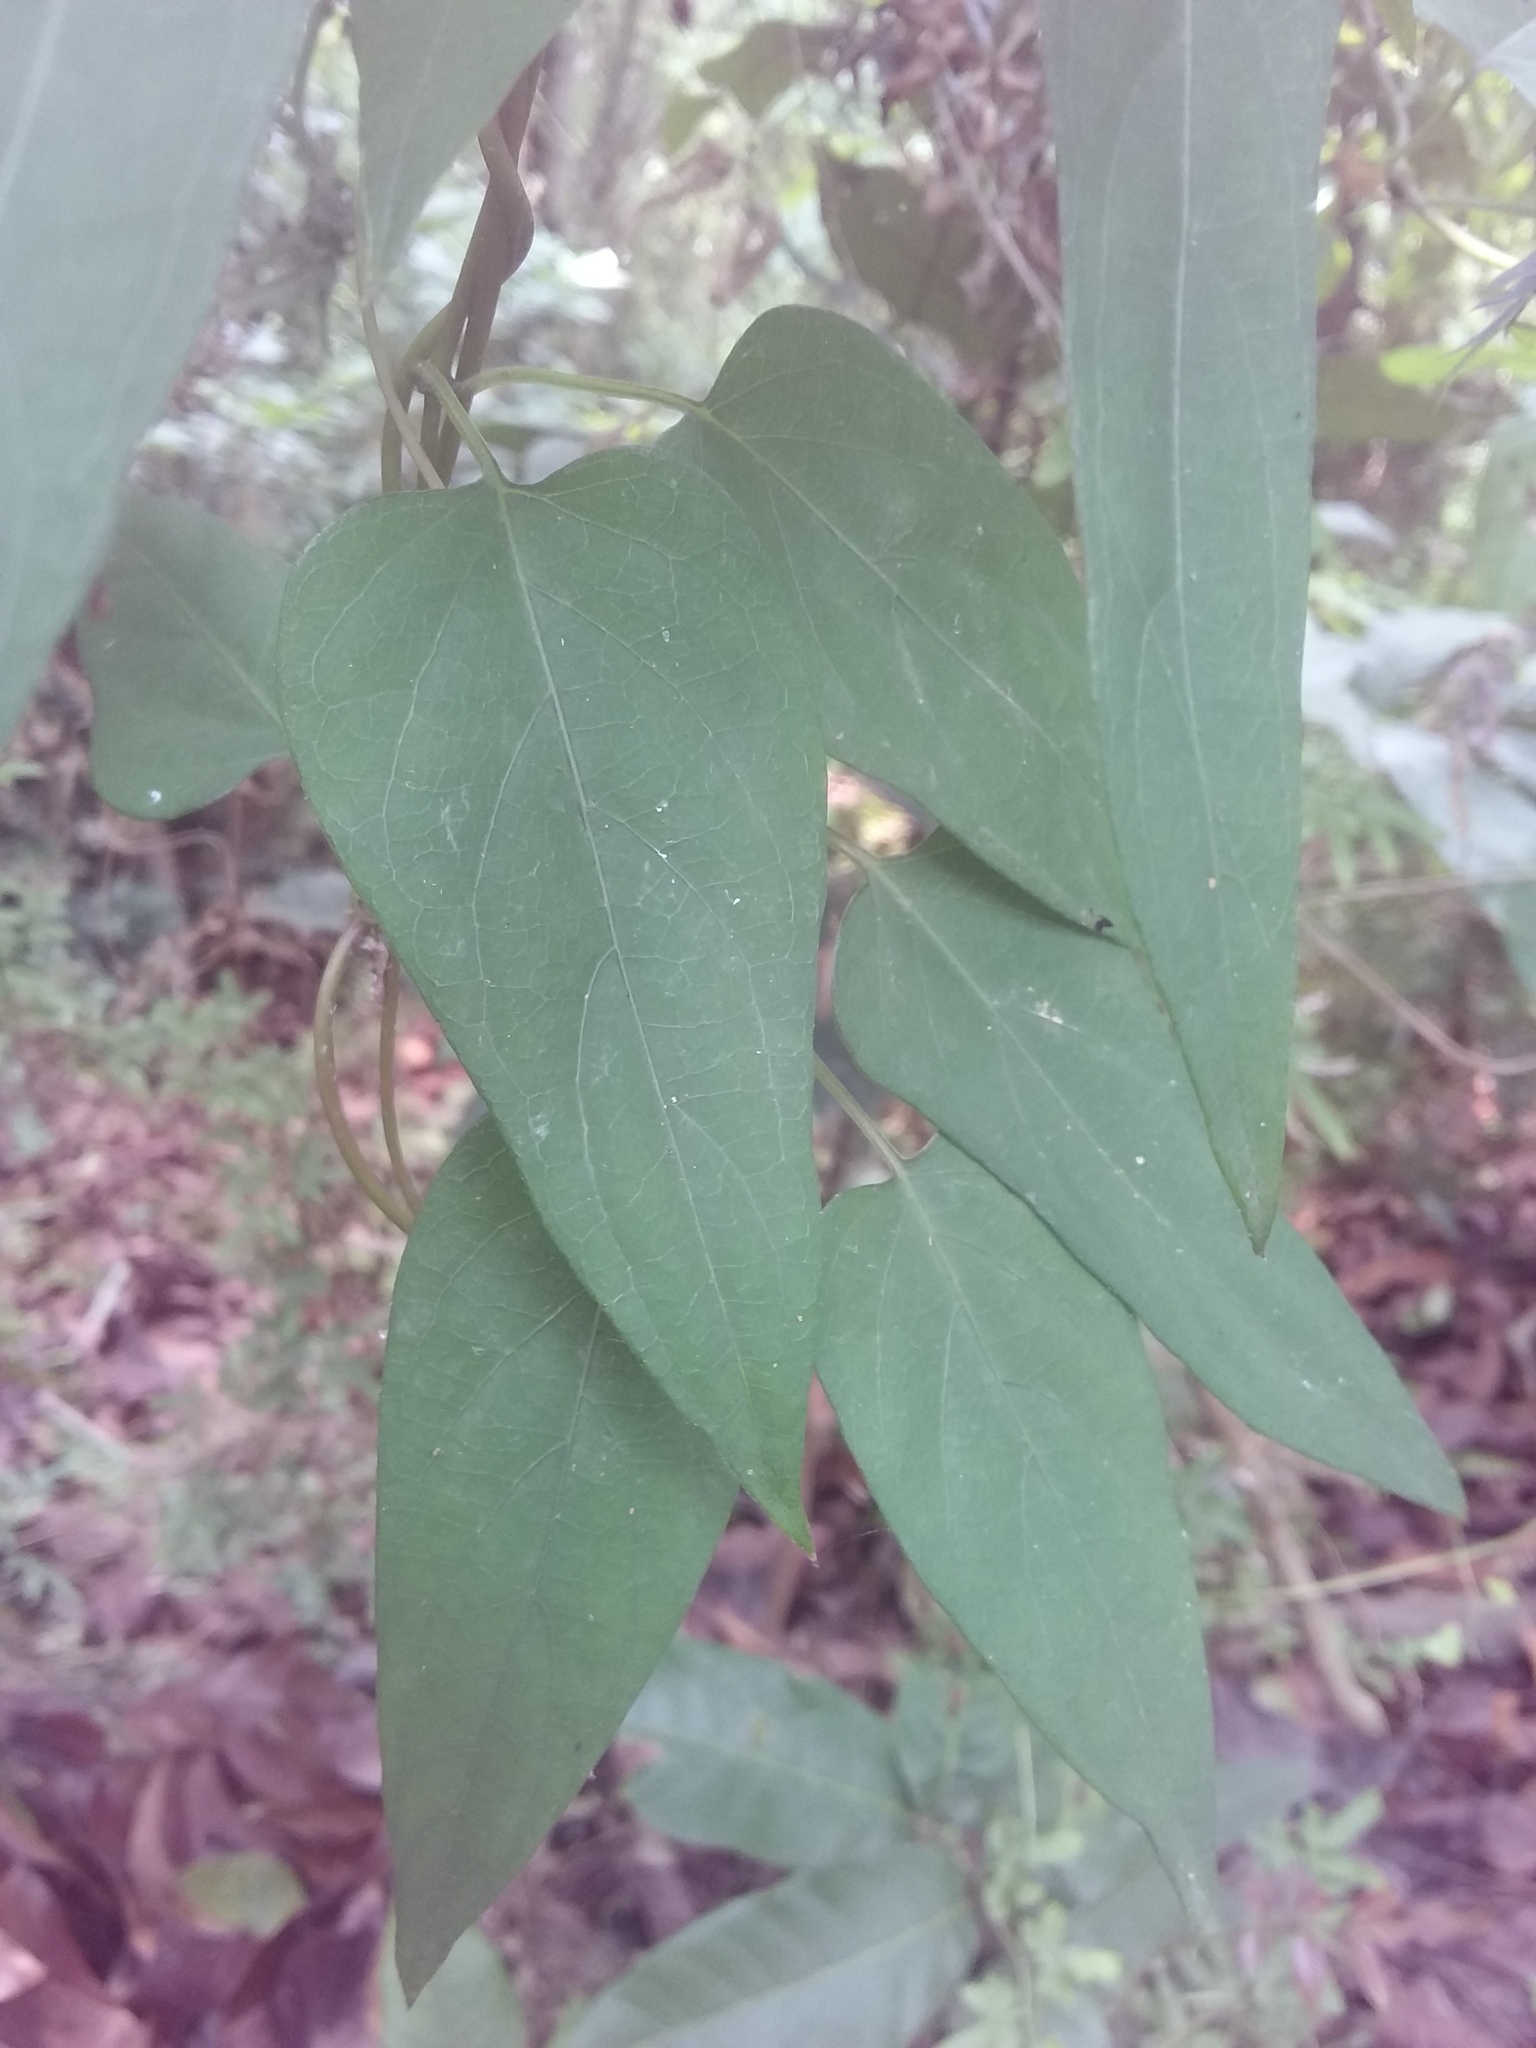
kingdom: Plantae
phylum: Tracheophyta
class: Magnoliopsida
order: Gentianales
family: Rubiaceae
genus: Paederia
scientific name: Paederia foetida
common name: Stinkvine
